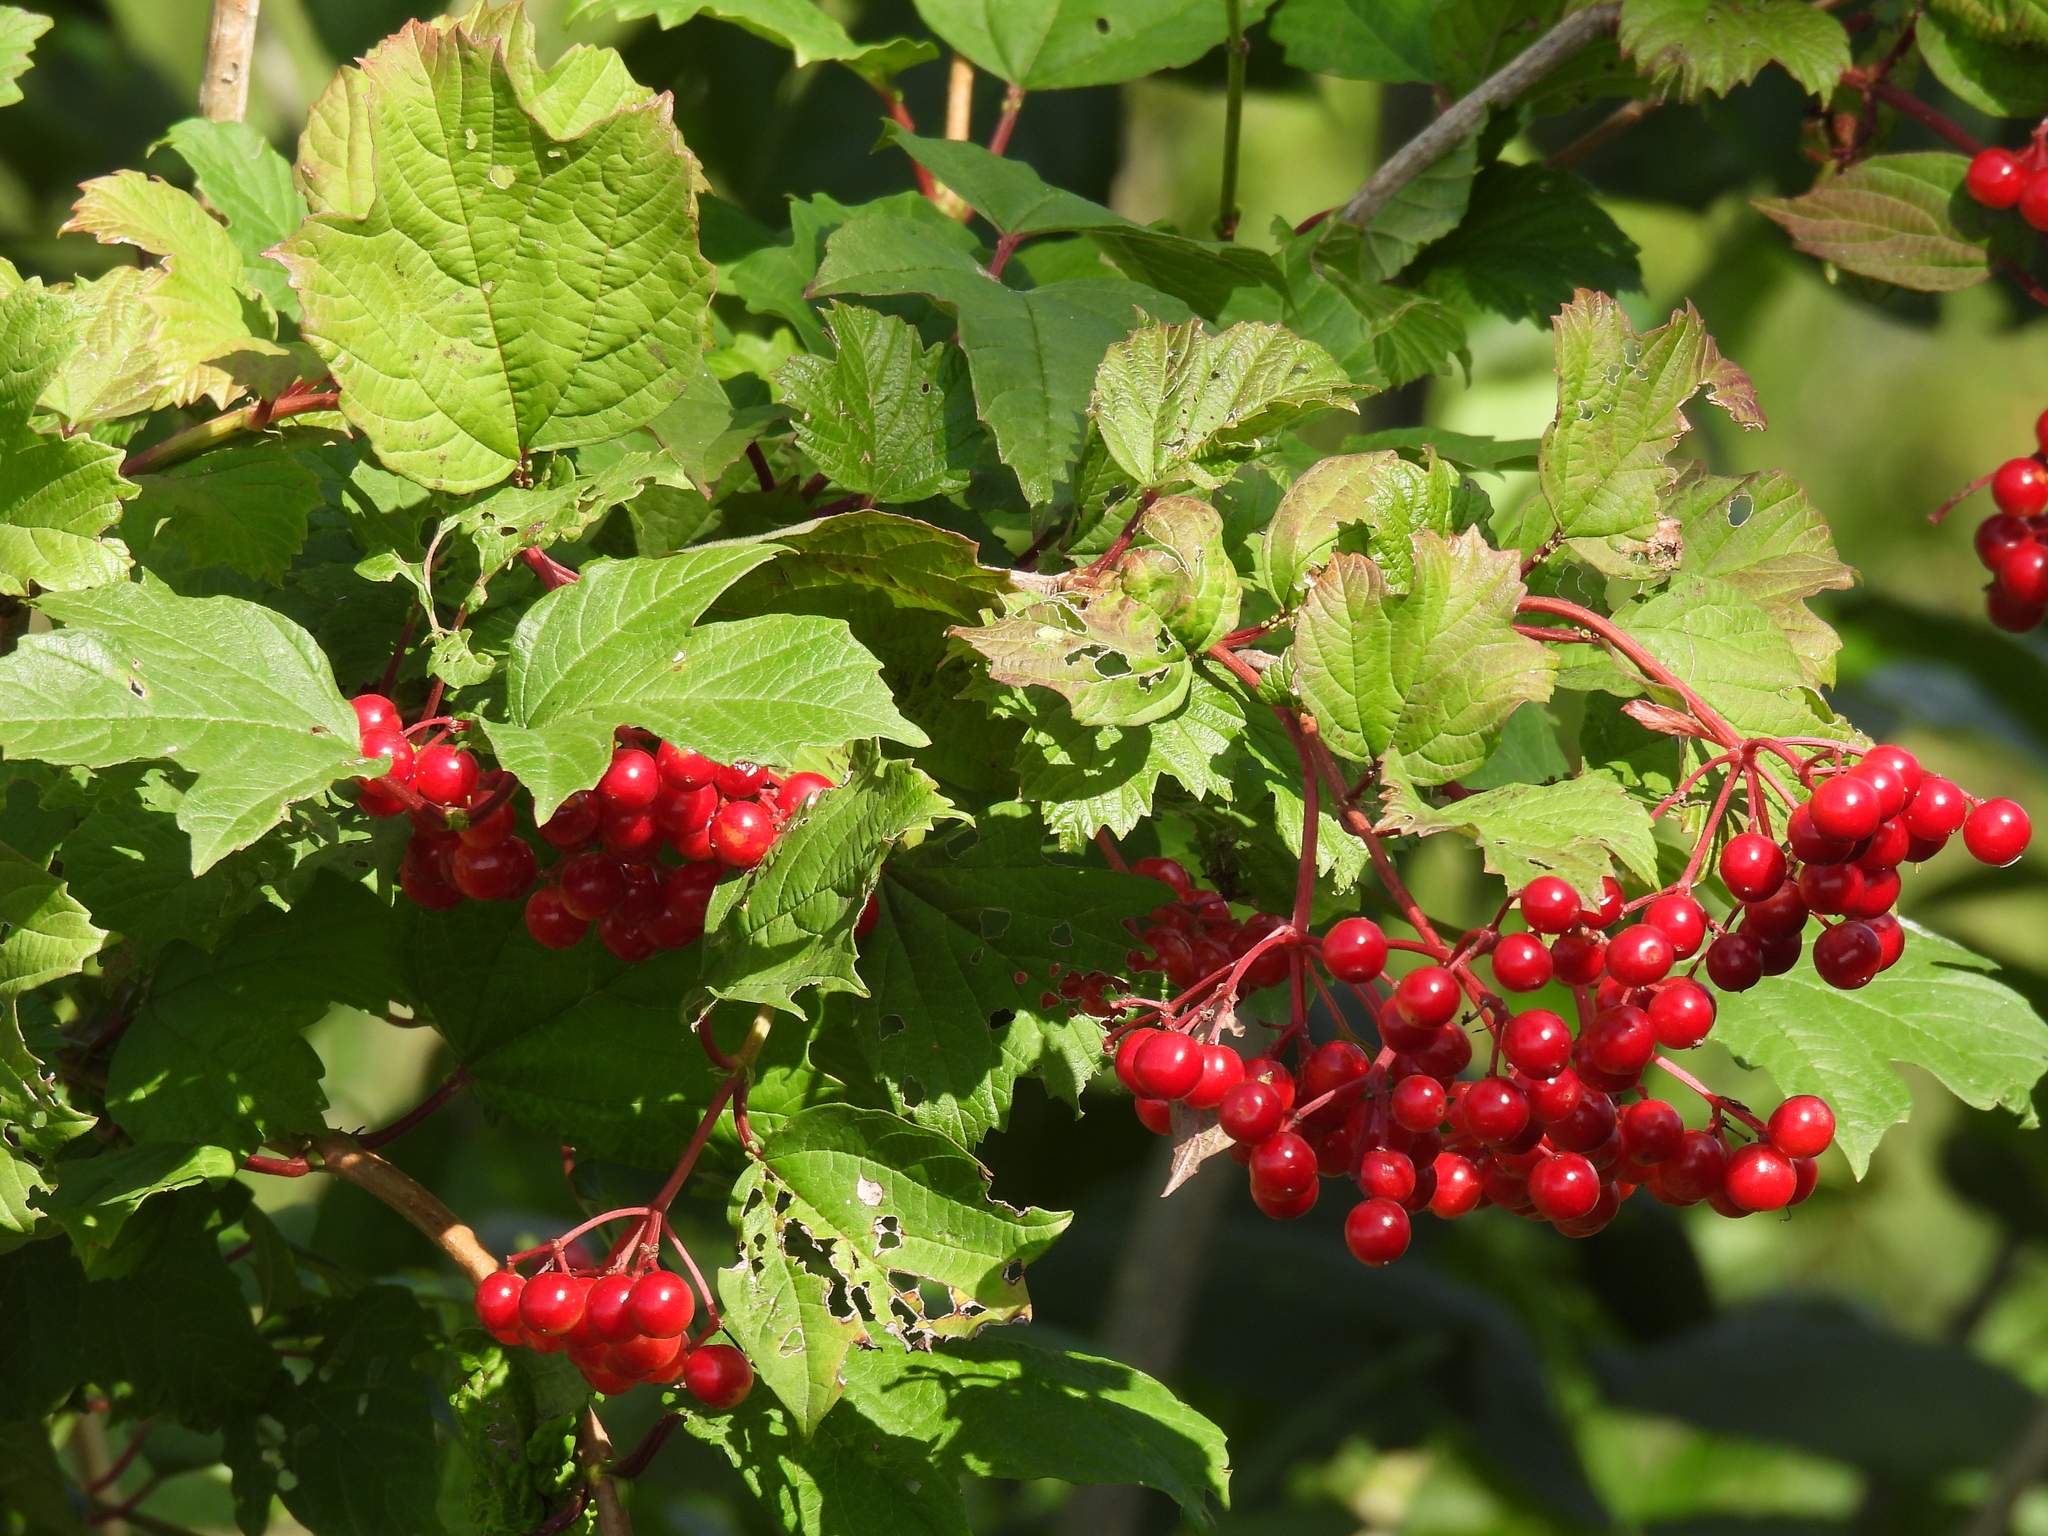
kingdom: Plantae
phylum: Tracheophyta
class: Magnoliopsida
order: Dipsacales
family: Viburnaceae
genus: Viburnum
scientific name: Viburnum opulus
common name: Guelder-rose
